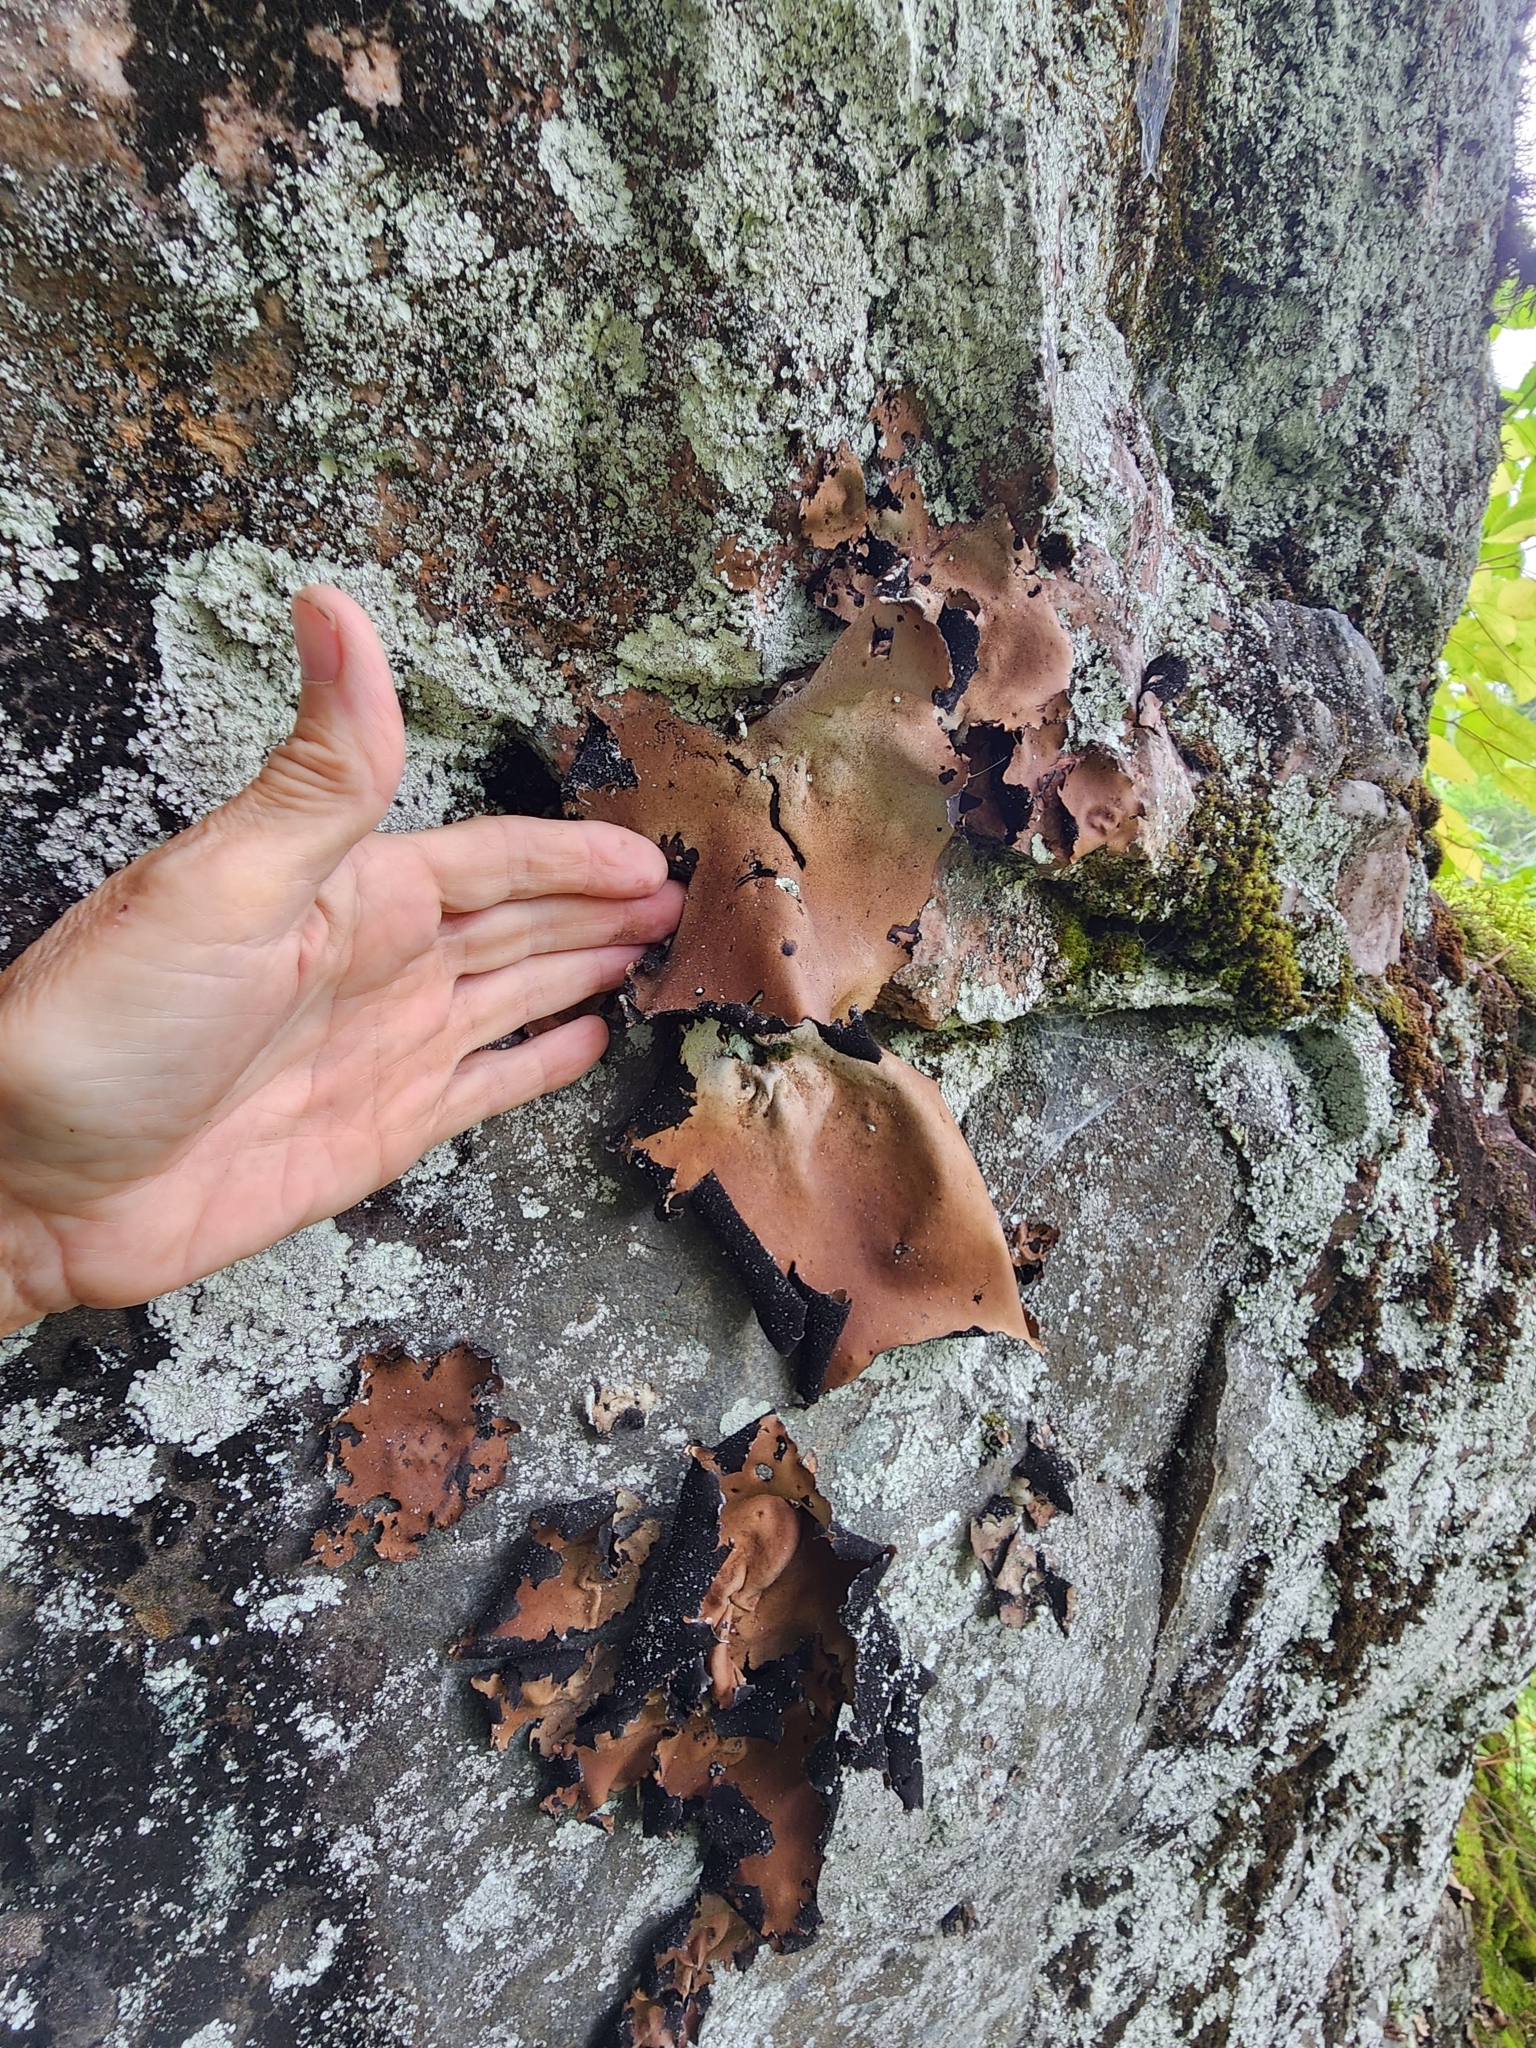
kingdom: Fungi
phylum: Ascomycota
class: Lecanoromycetes
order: Umbilicariales
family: Umbilicariaceae
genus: Umbilicaria
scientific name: Umbilicaria mammulata
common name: Smooth rock tripe
